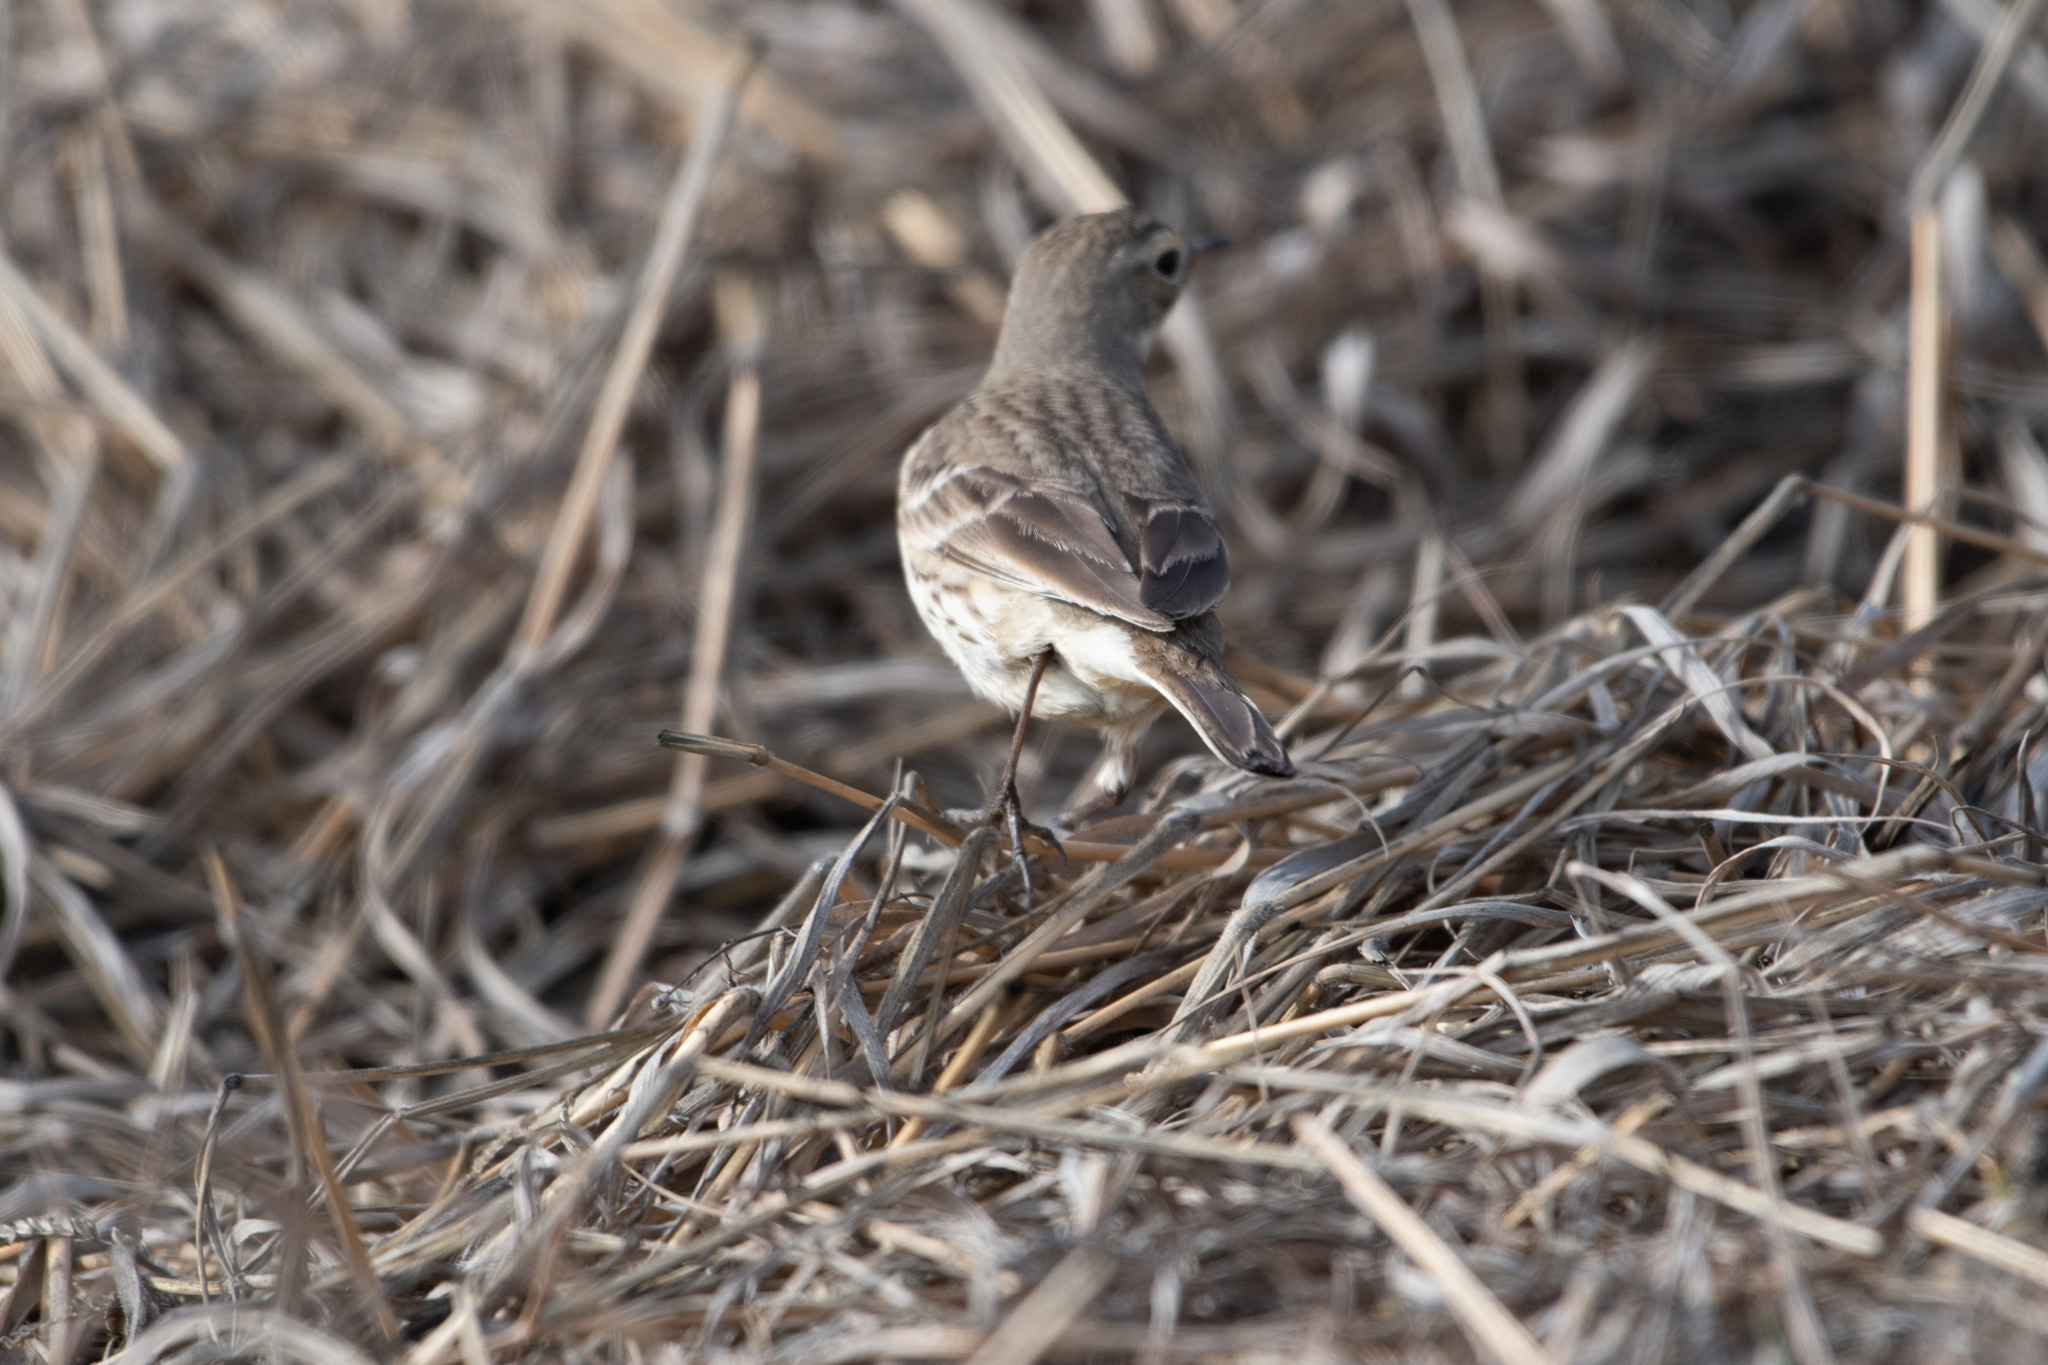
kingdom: Animalia
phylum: Chordata
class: Aves
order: Passeriformes
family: Motacillidae
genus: Anthus
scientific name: Anthus rubescens
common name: Buff-bellied pipit
